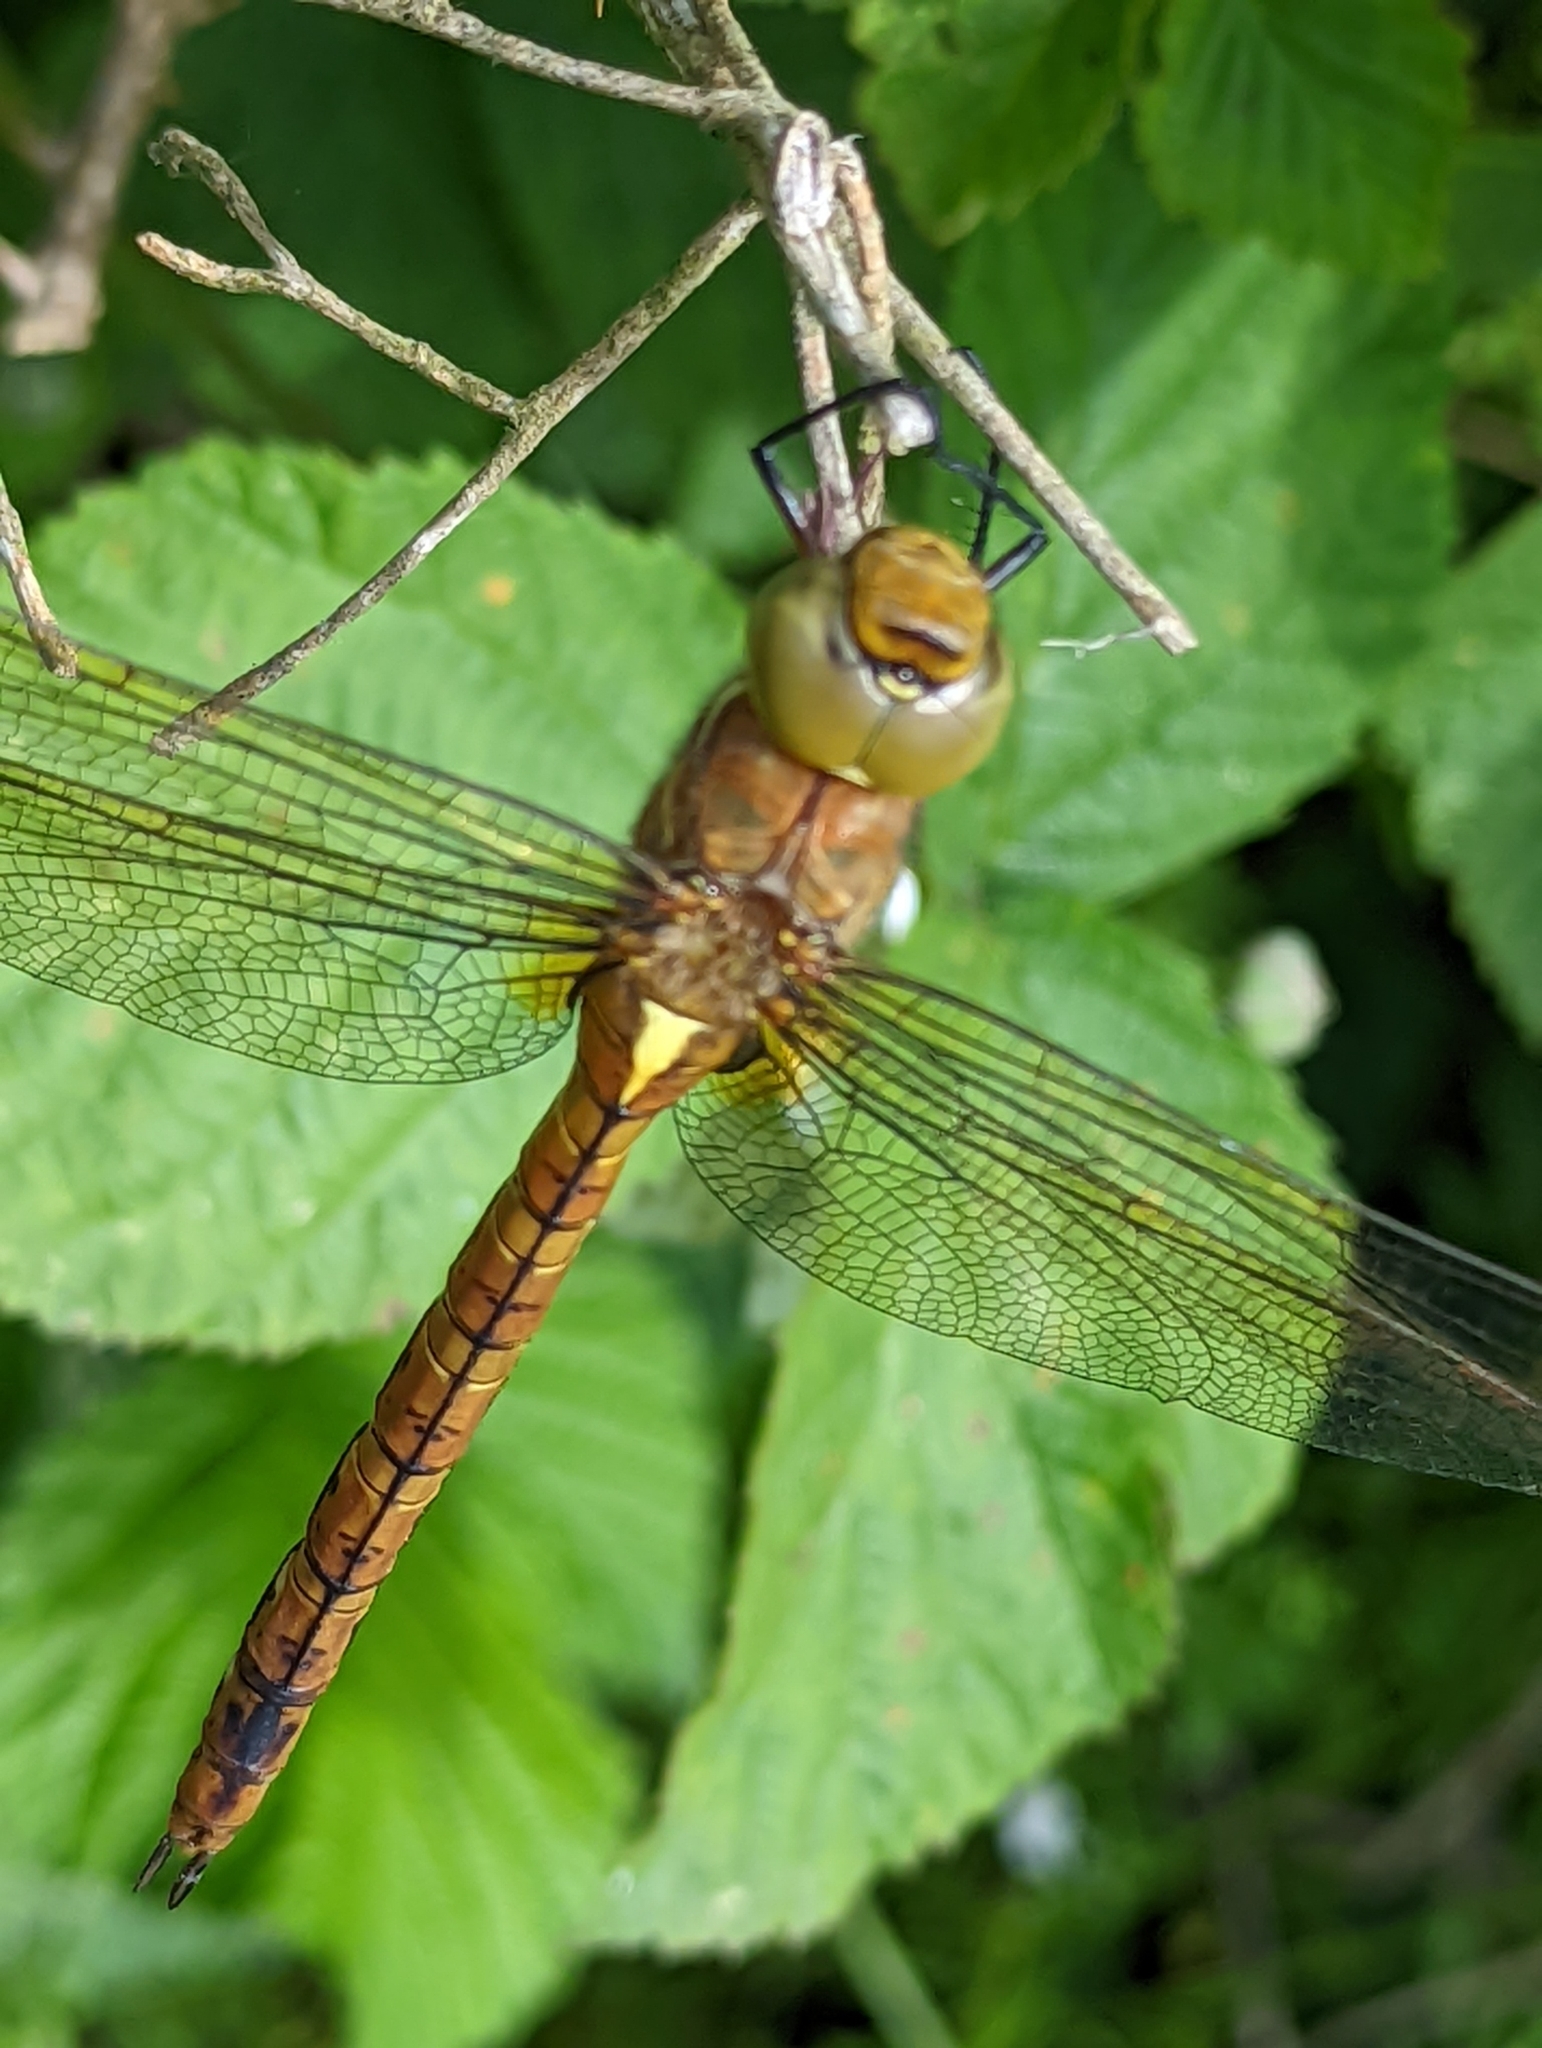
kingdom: Animalia
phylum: Arthropoda
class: Insecta
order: Odonata
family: Aeshnidae
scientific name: Aeshnidae
